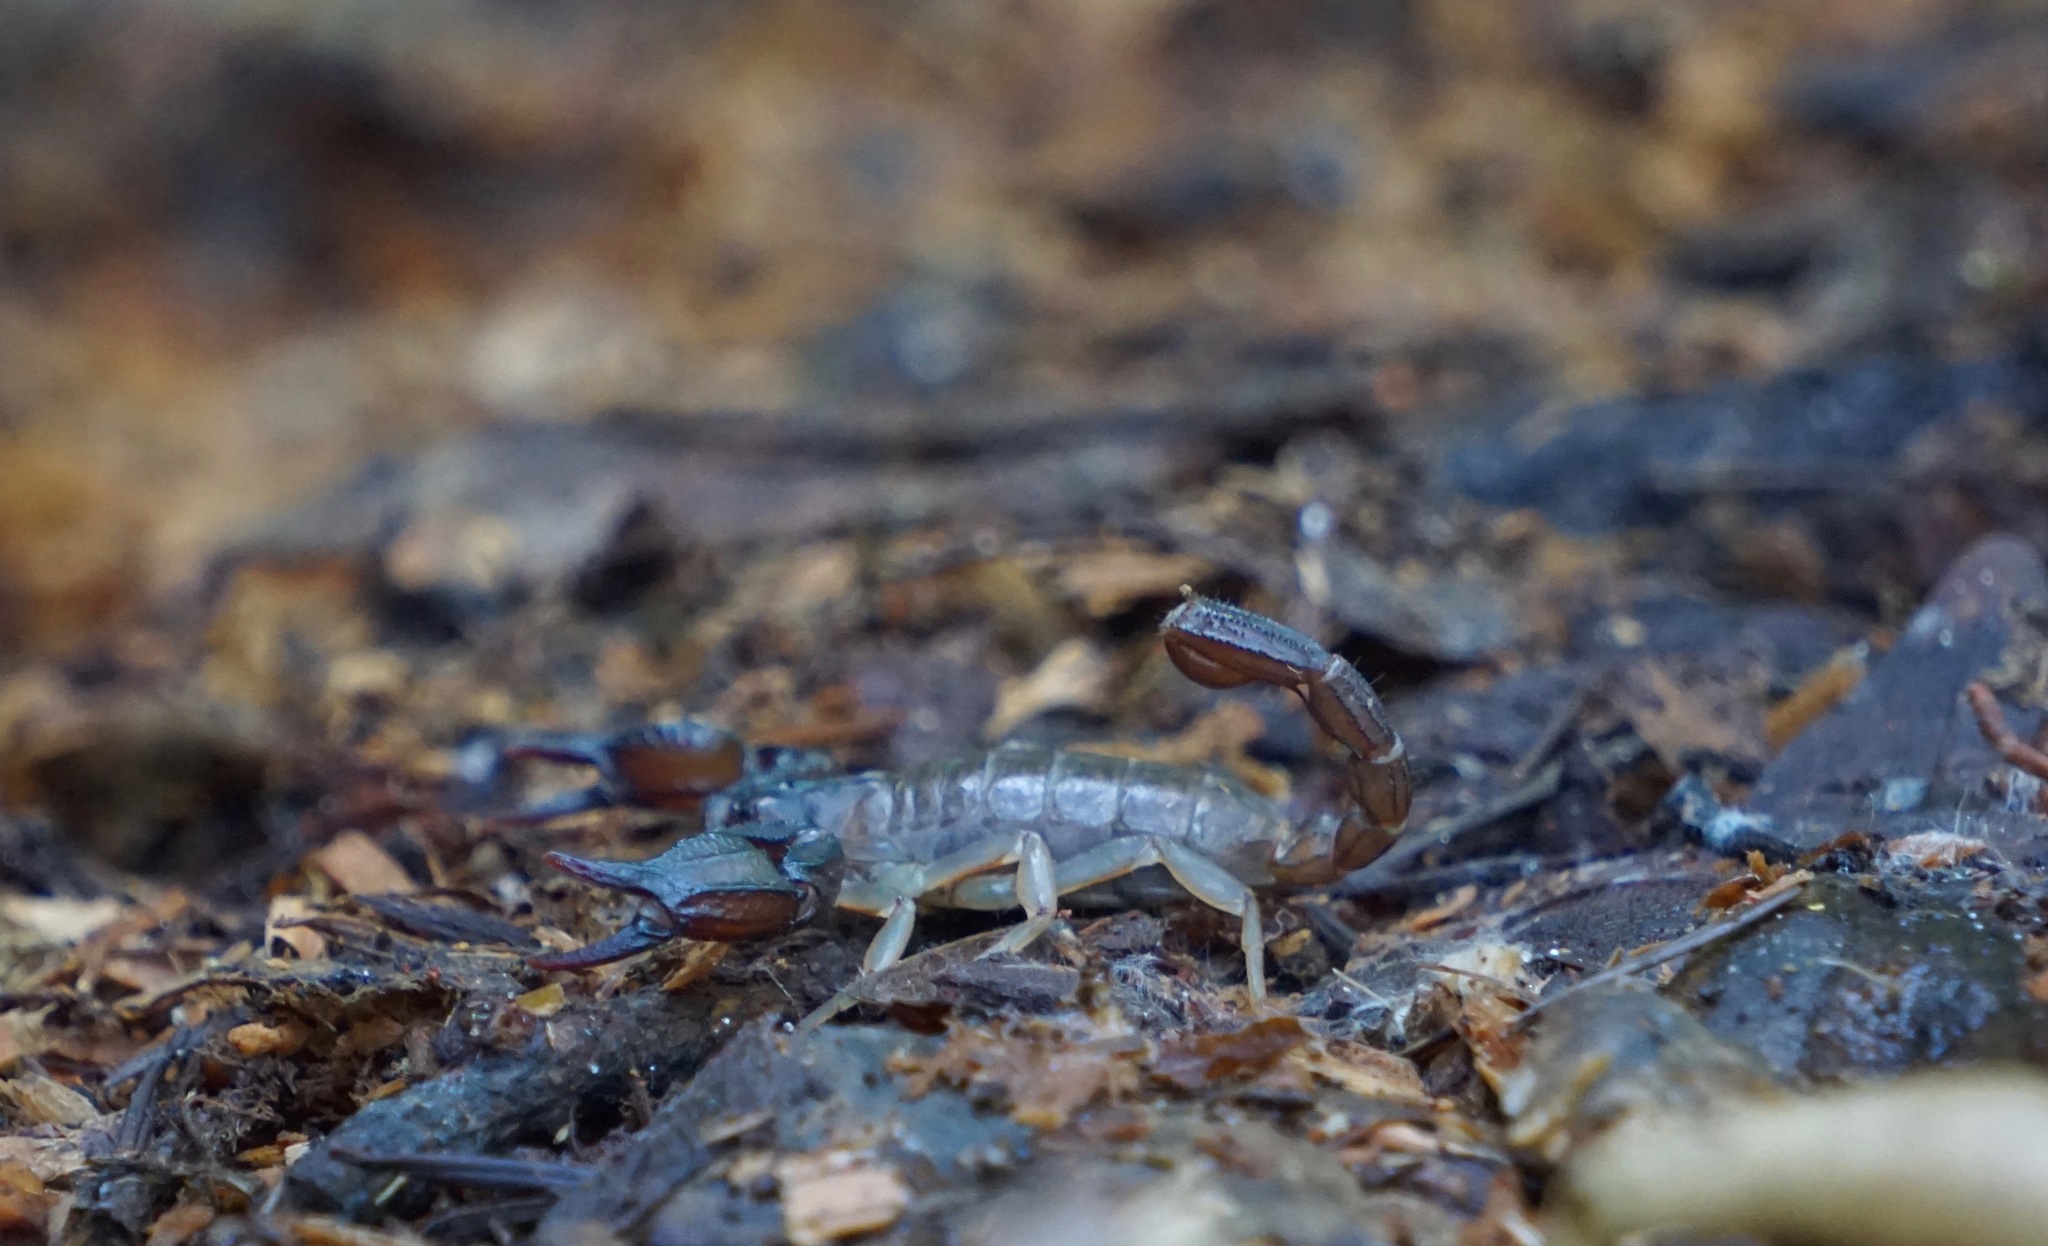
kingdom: Animalia
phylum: Arthropoda
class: Arachnida
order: Scorpiones
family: Chactidae
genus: Uroctonus
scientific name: Uroctonus mordax
